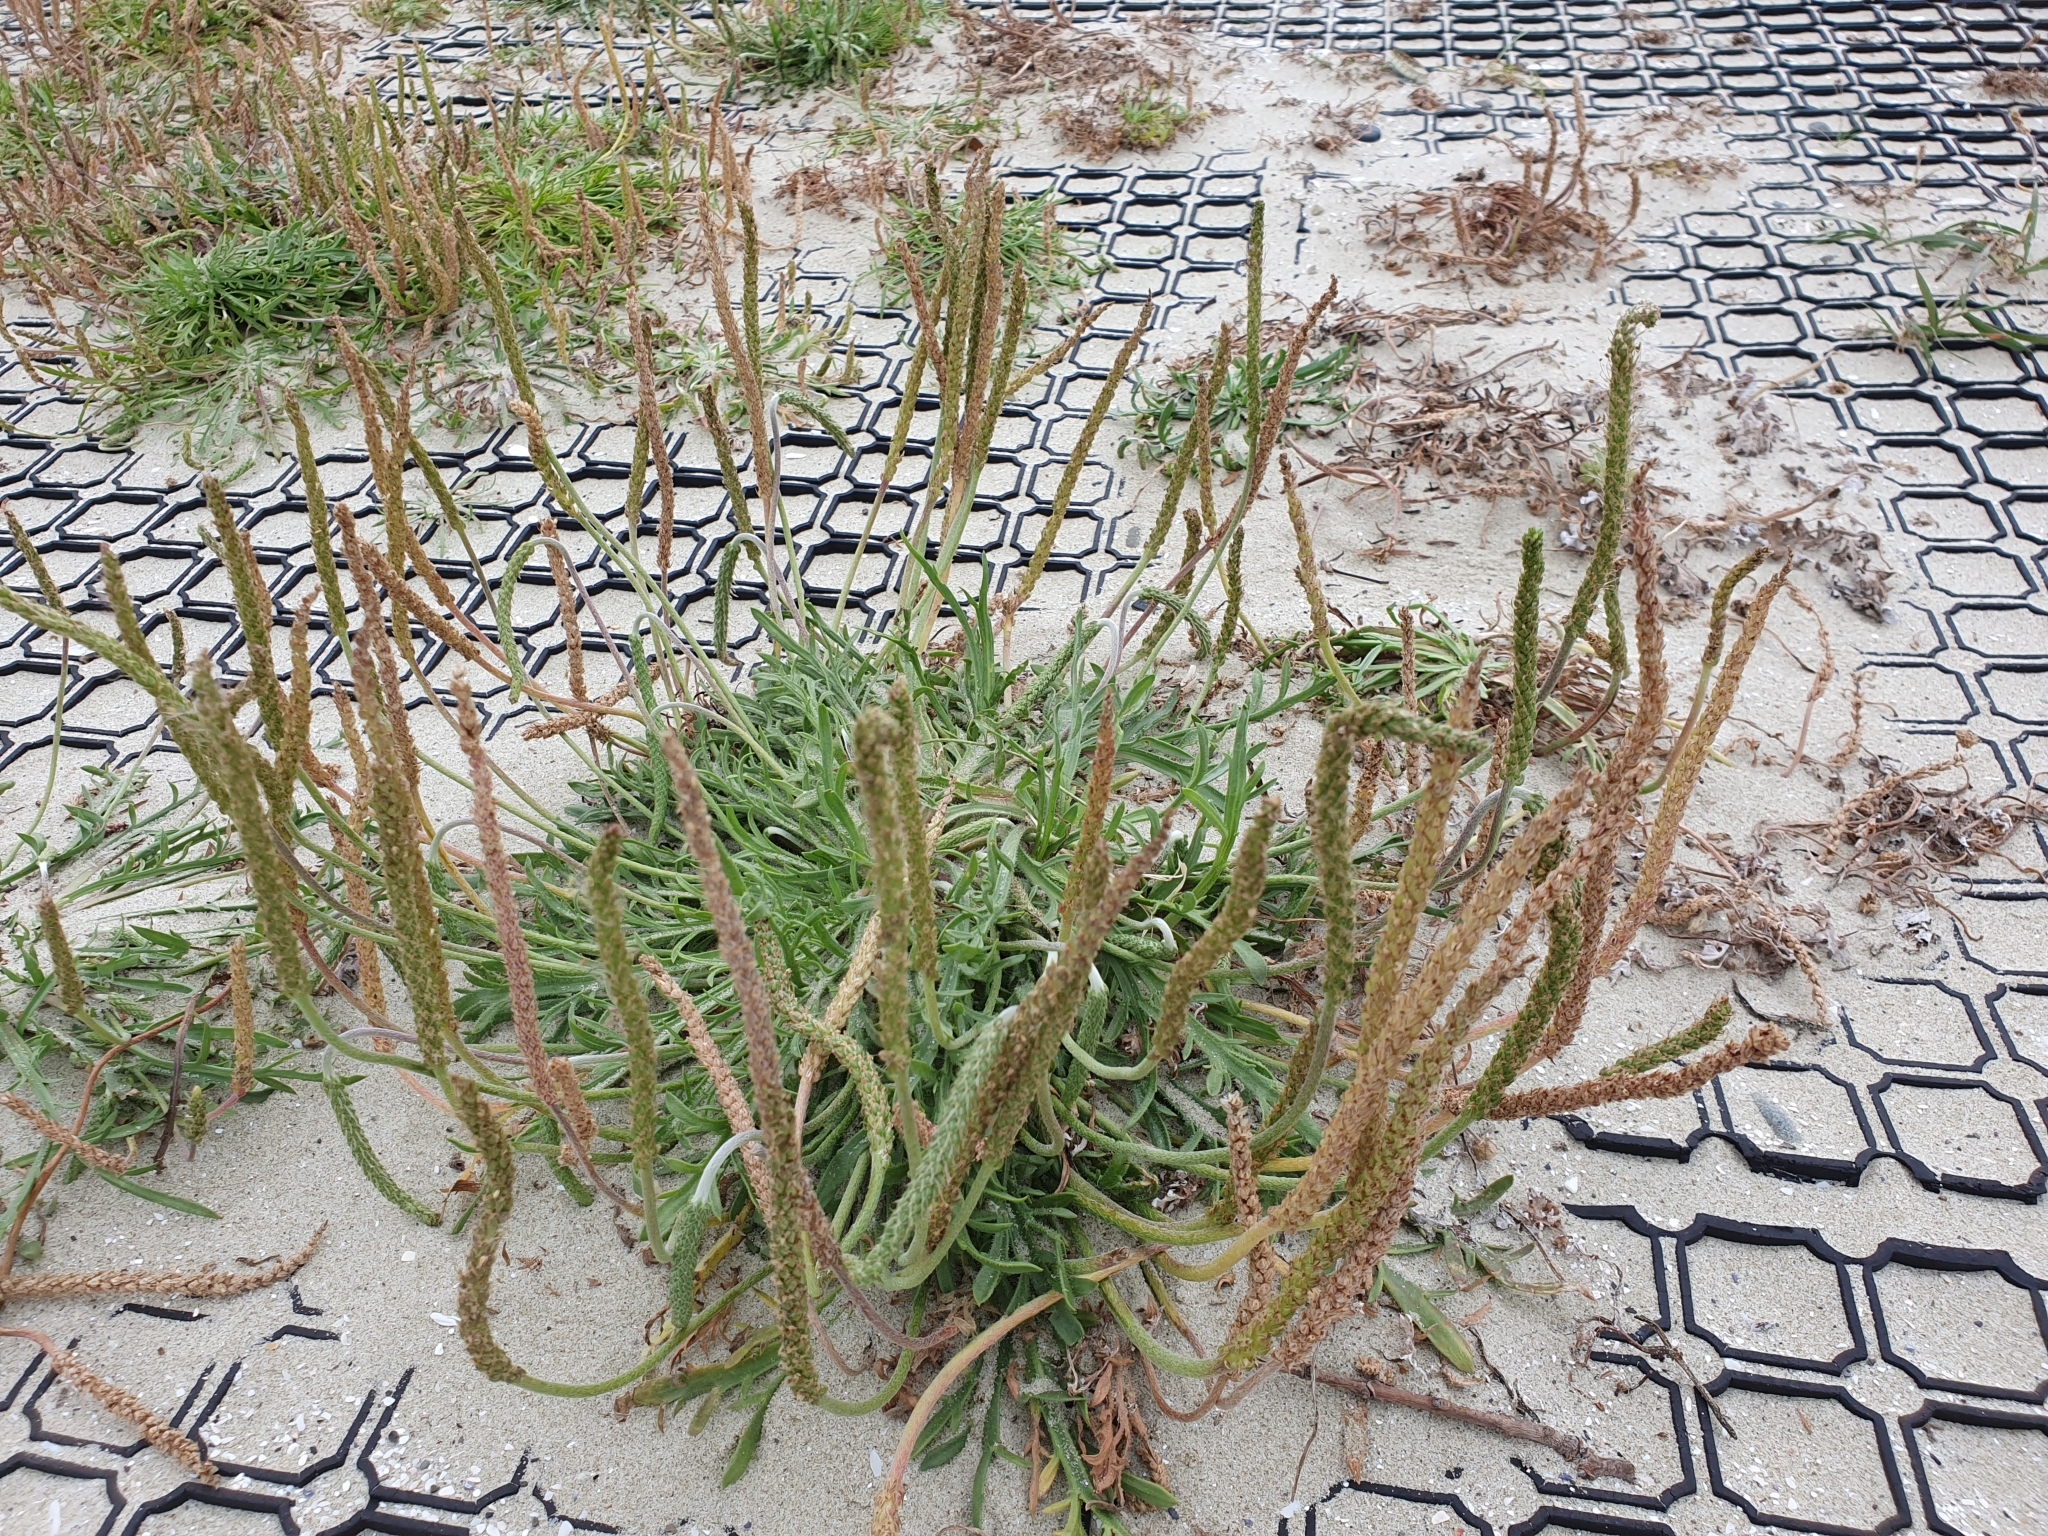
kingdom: Plantae
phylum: Tracheophyta
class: Magnoliopsida
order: Lamiales
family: Plantaginaceae
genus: Plantago
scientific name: Plantago coronopus
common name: Buck's-horn plantain
